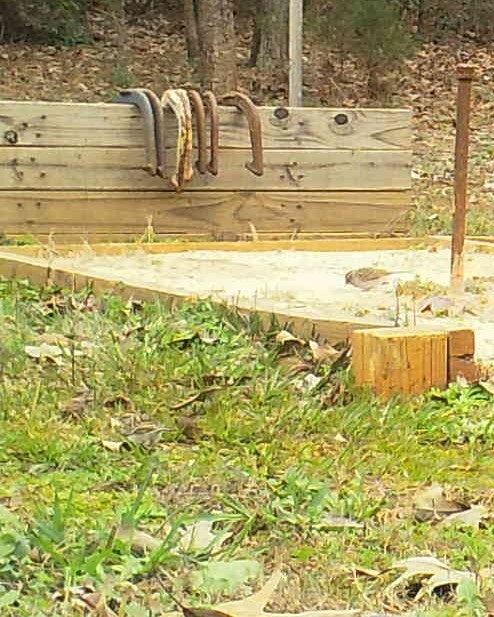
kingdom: Animalia
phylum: Chordata
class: Aves
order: Passeriformes
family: Passerellidae
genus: Spizella
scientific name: Spizella passerina
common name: Chipping sparrow
